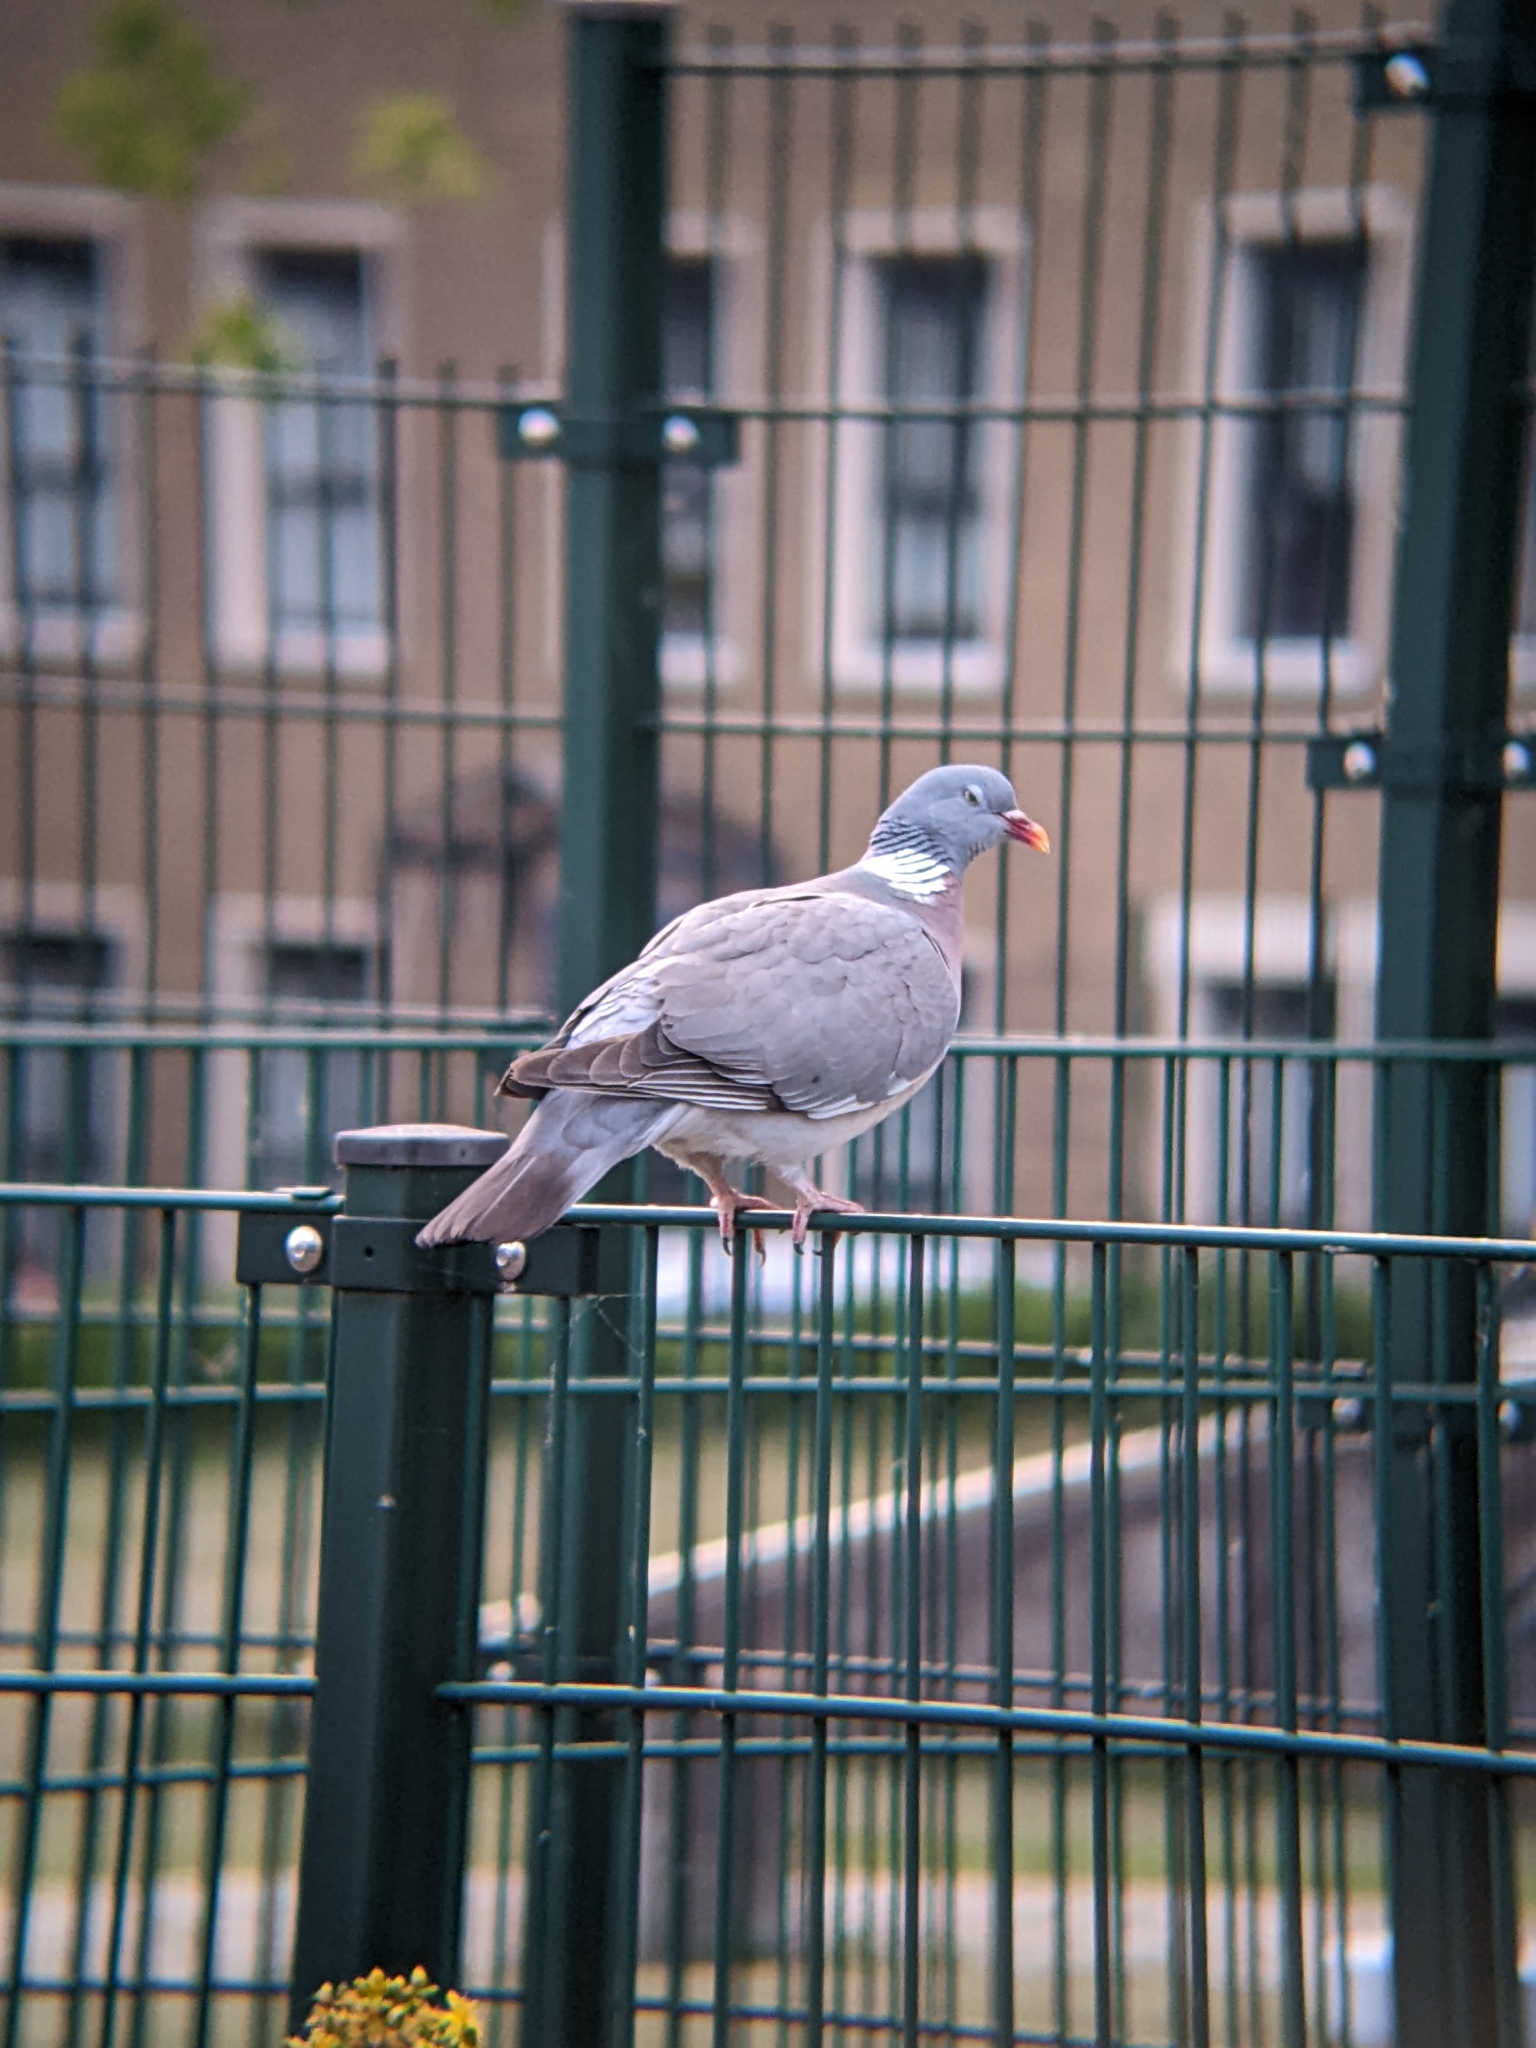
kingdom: Animalia
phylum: Chordata
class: Aves
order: Columbiformes
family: Columbidae
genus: Columba
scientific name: Columba palumbus
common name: Common wood pigeon
